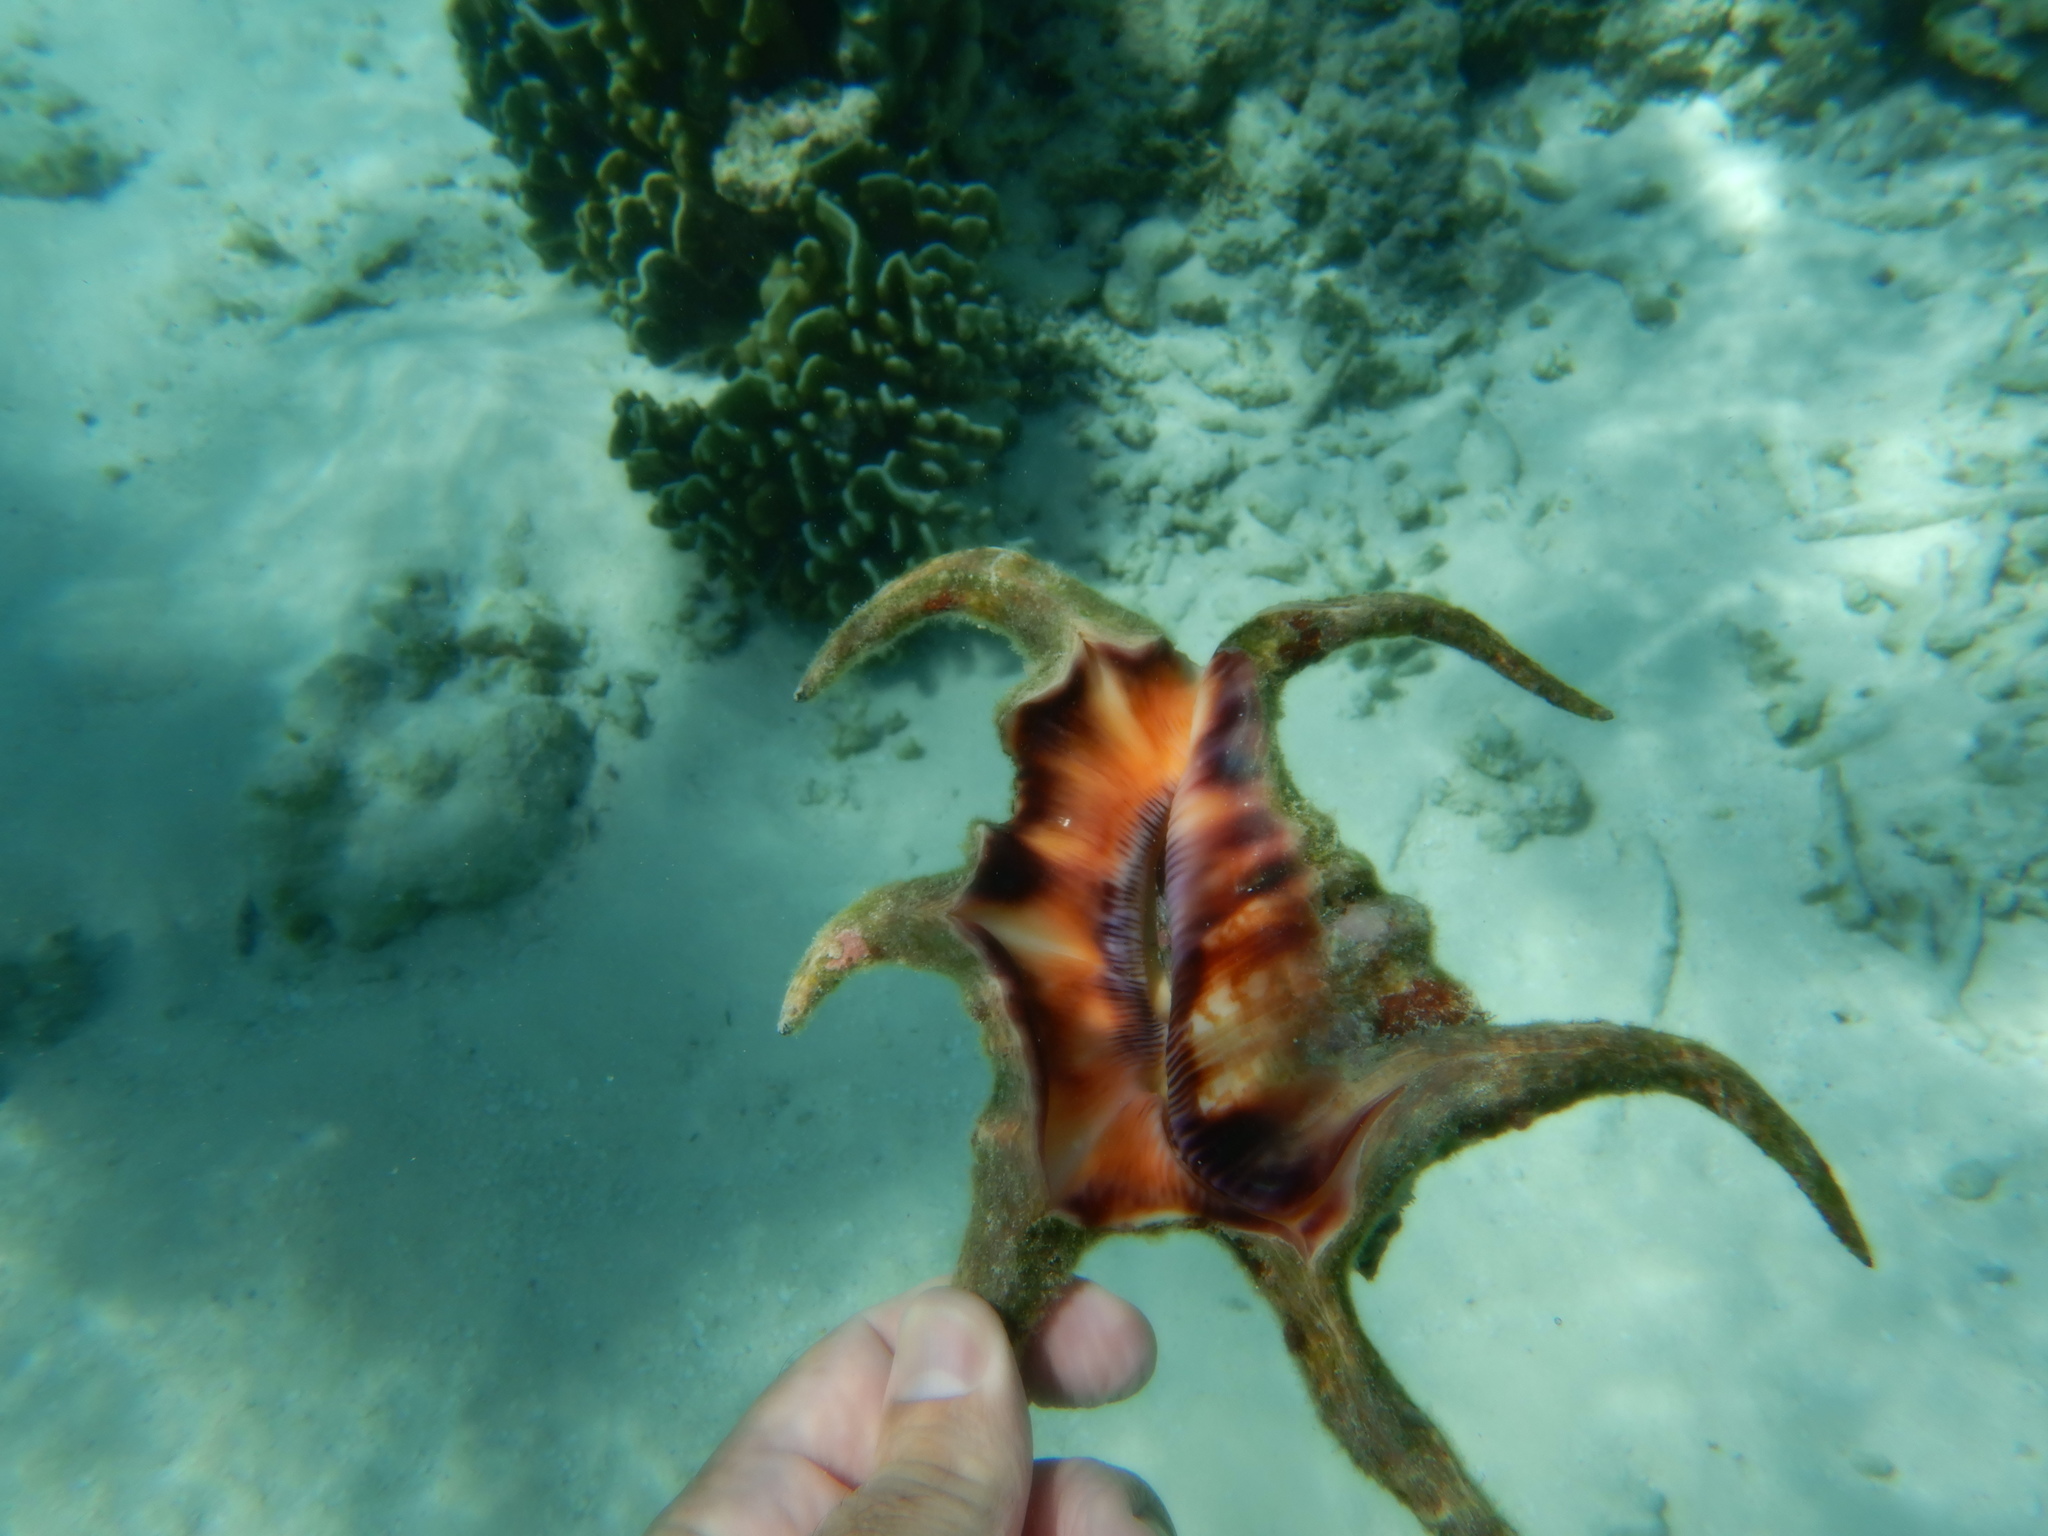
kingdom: Animalia
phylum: Mollusca
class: Gastropoda
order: Littorinimorpha
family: Strombidae
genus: Harpago
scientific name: Harpago chiragra
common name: Chiragra spider conch
